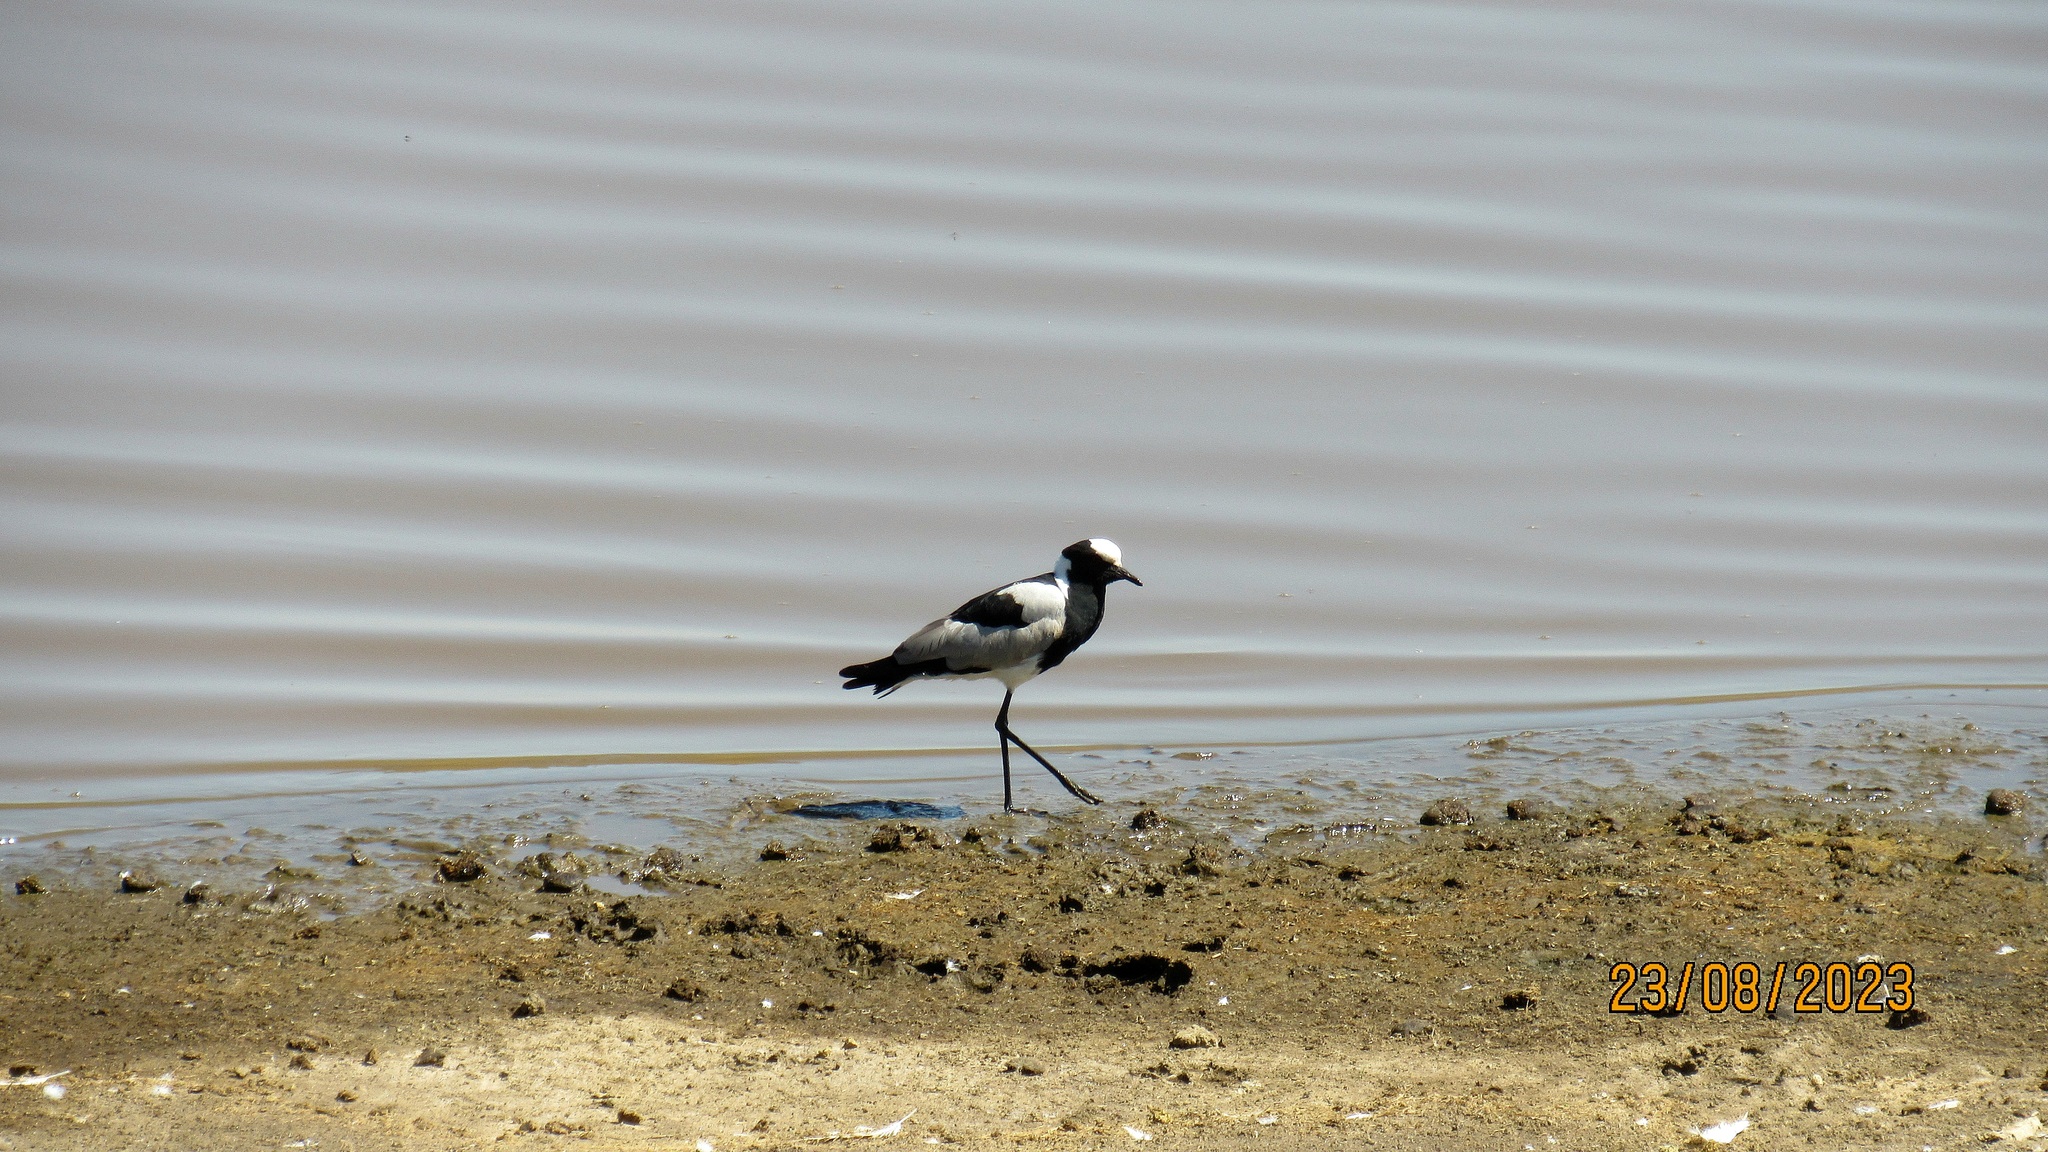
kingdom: Animalia
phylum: Chordata
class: Aves
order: Charadriiformes
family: Charadriidae
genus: Vanellus
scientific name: Vanellus armatus
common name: Blacksmith lapwing
